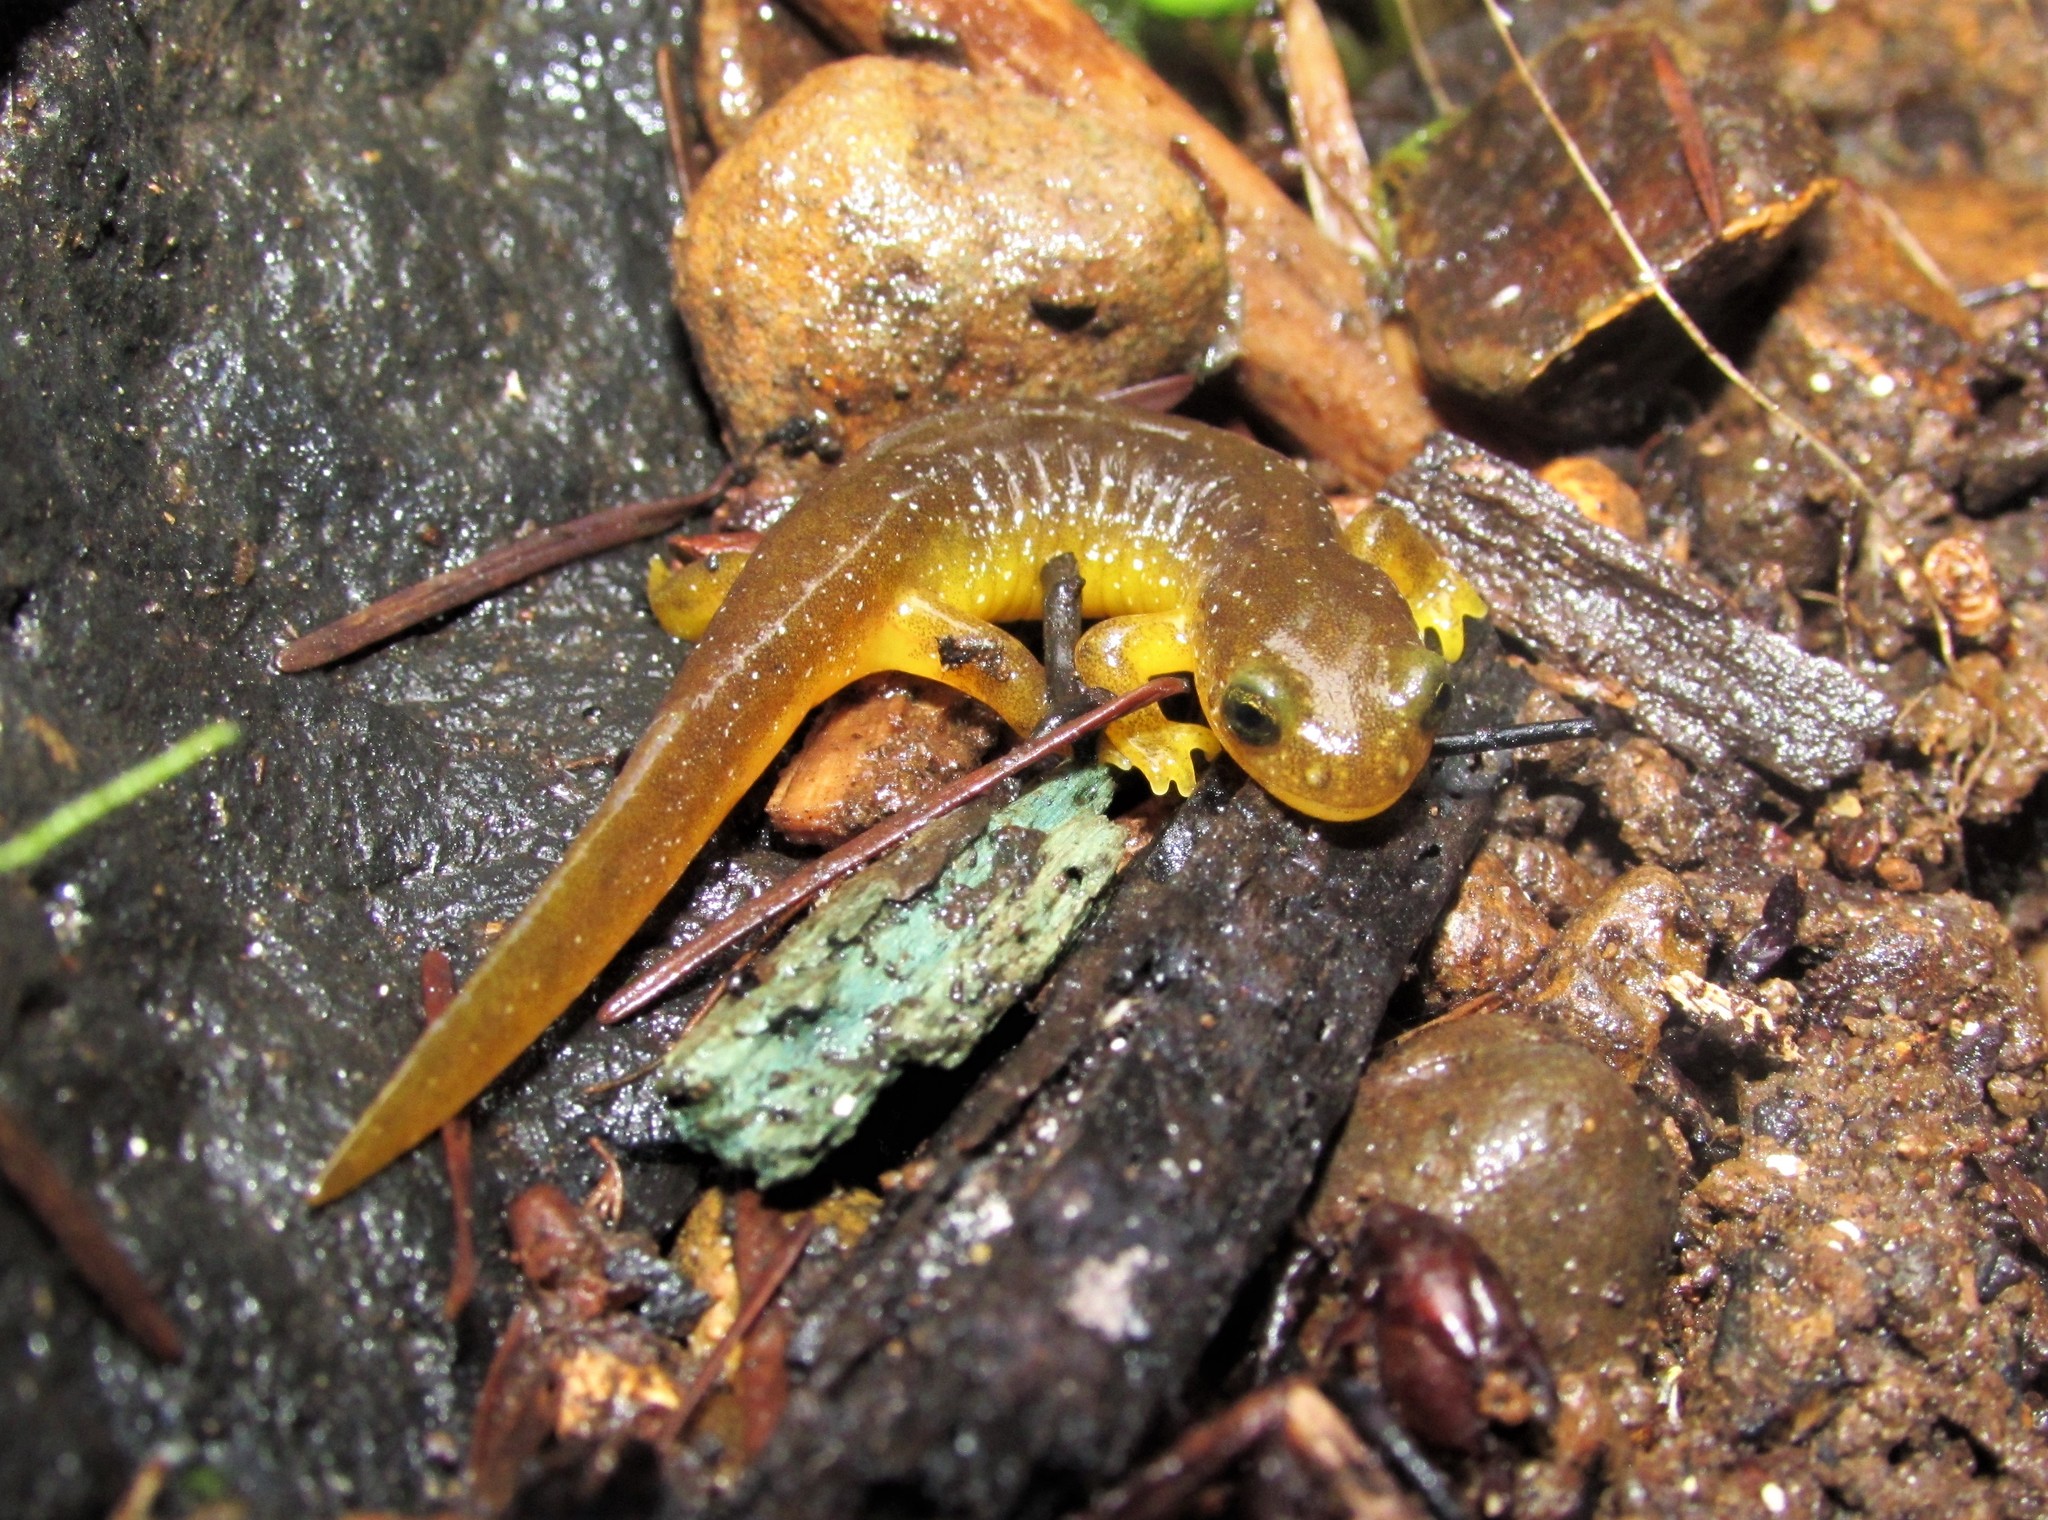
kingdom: Animalia
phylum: Chordata
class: Amphibia
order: Caudata
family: Rhyacotritonidae
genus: Rhyacotriton
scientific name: Rhyacotriton kezeri
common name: Columbia torrent salamander
